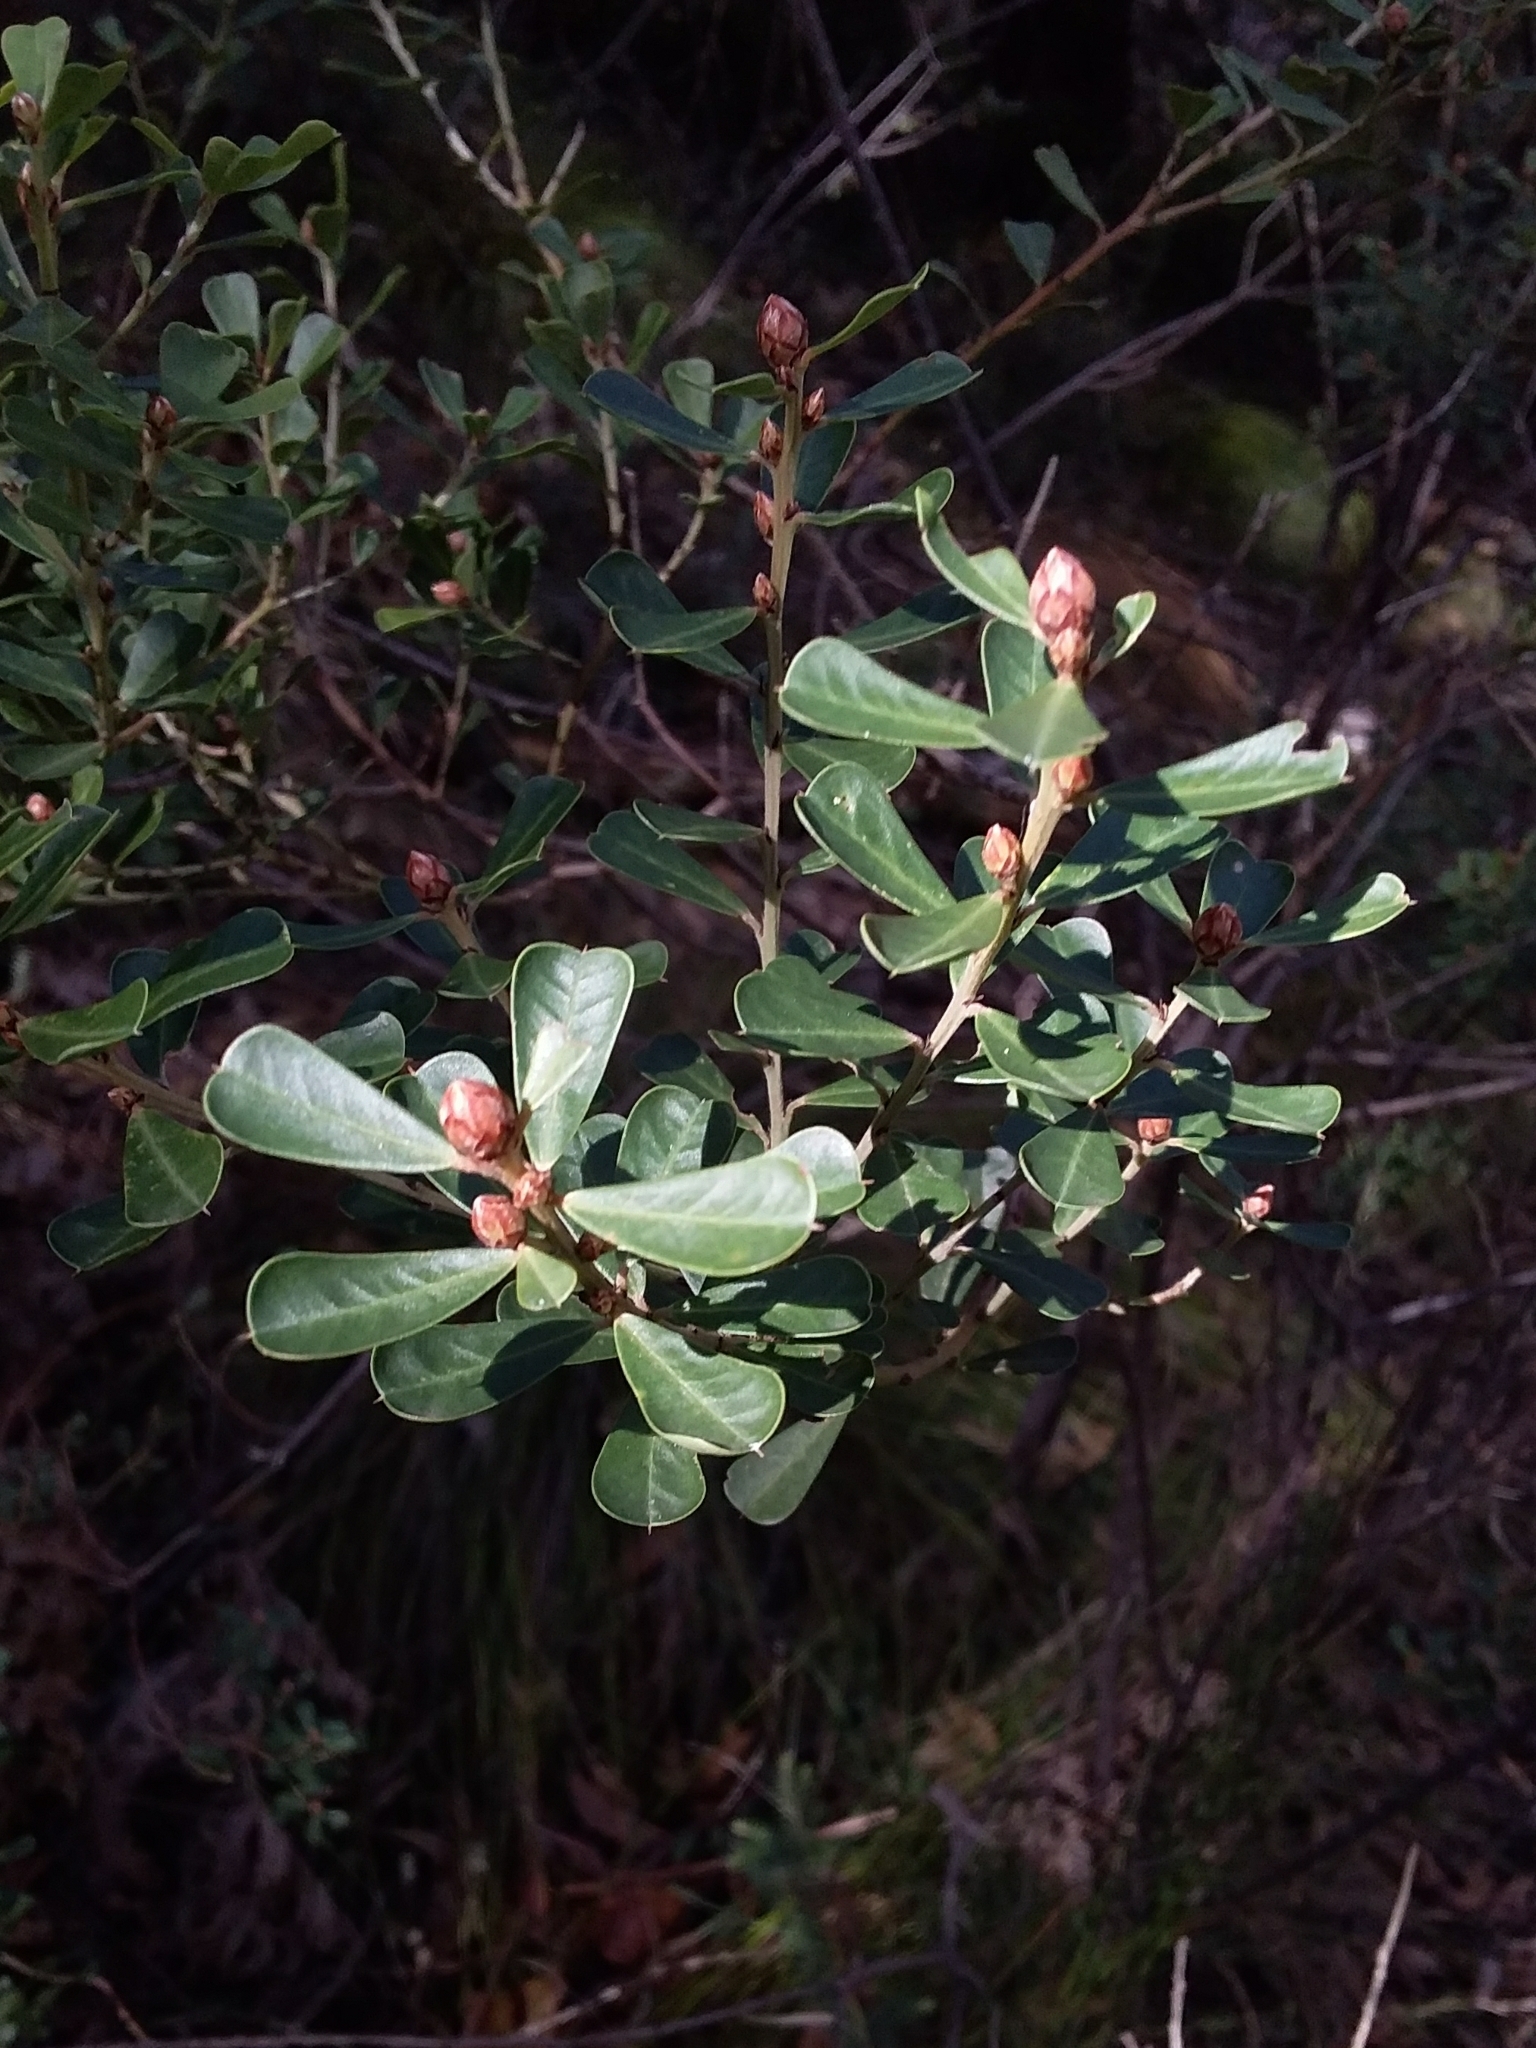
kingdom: Plantae
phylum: Tracheophyta
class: Magnoliopsida
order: Fabales
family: Fabaceae
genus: Pultenaea
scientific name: Pultenaea daphnoides
